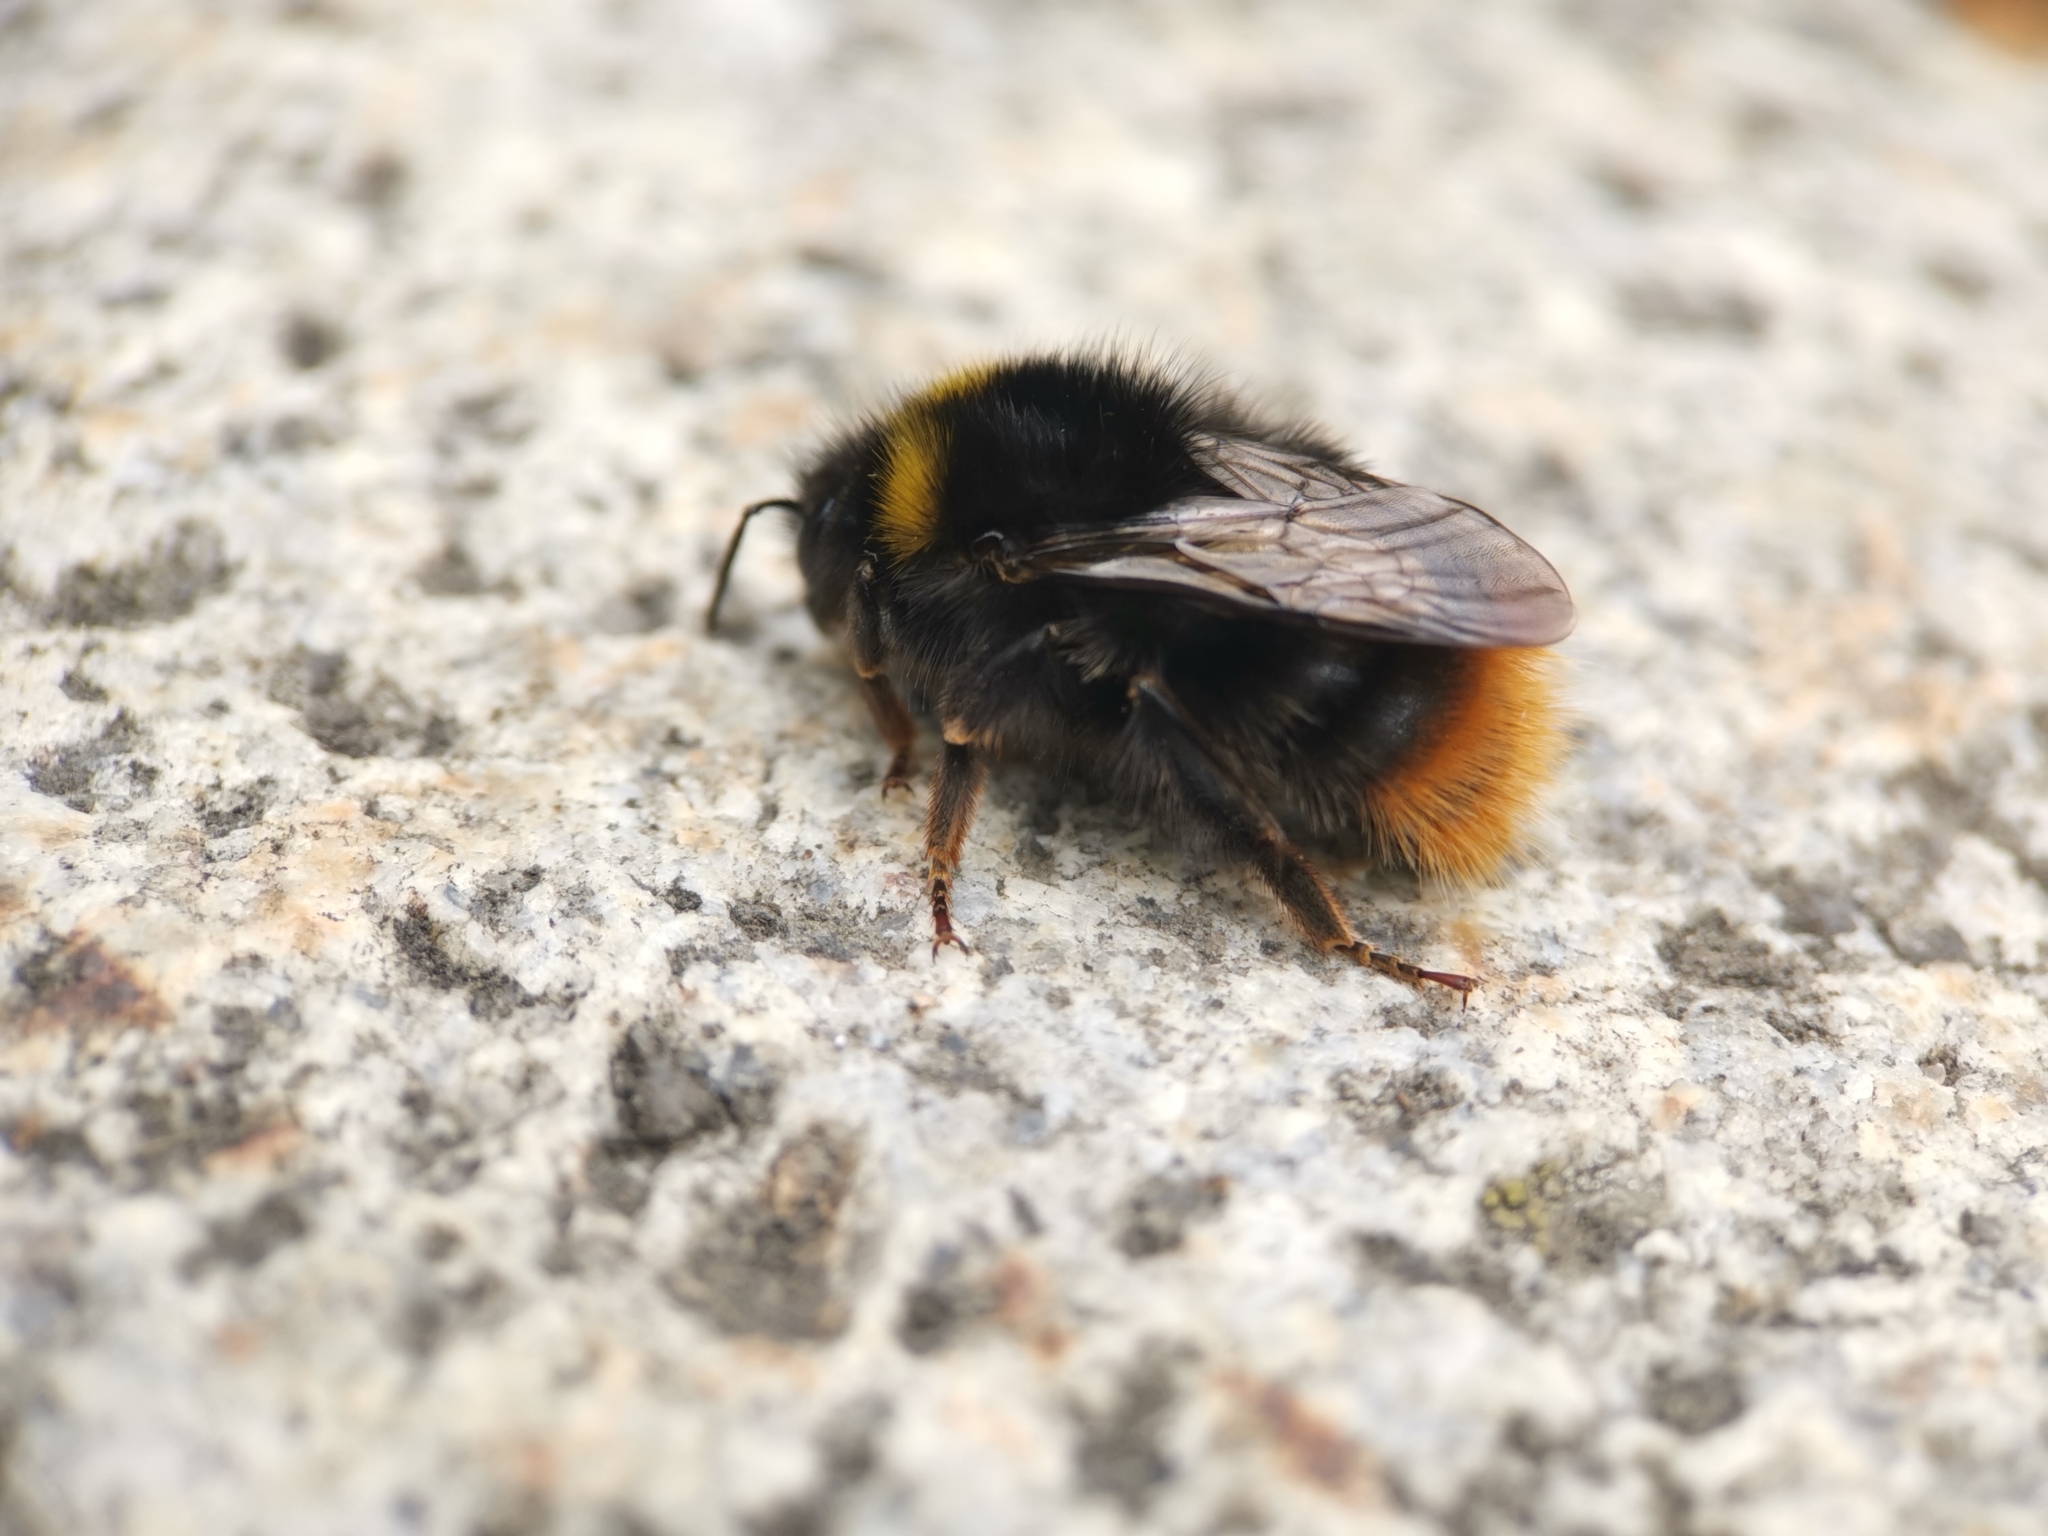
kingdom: Animalia
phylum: Arthropoda
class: Insecta
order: Hymenoptera
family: Apidae
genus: Bombus
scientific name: Bombus pratorum
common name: Early humble-bee
